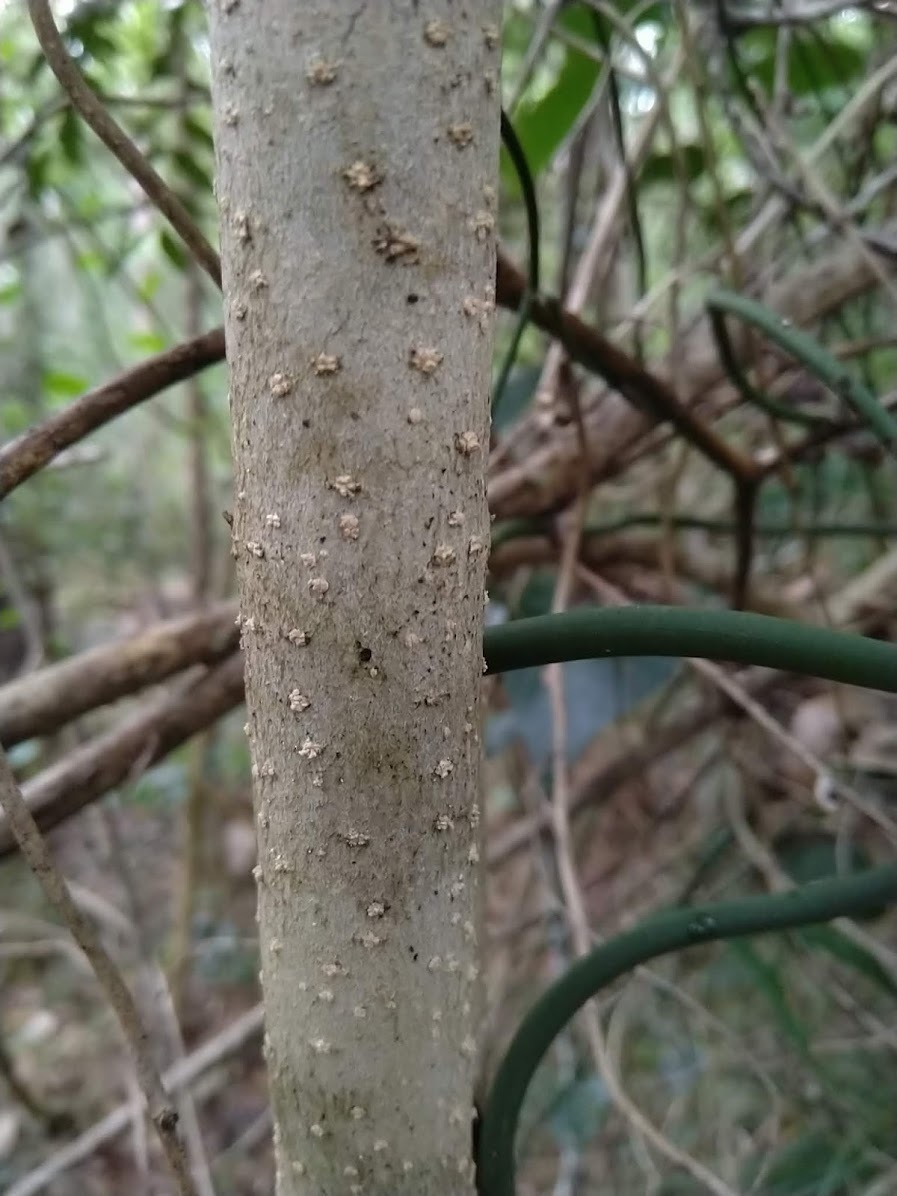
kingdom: Plantae
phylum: Tracheophyta
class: Magnoliopsida
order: Lamiales
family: Oleaceae
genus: Olea
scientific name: Olea paniculata
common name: Australian olive
